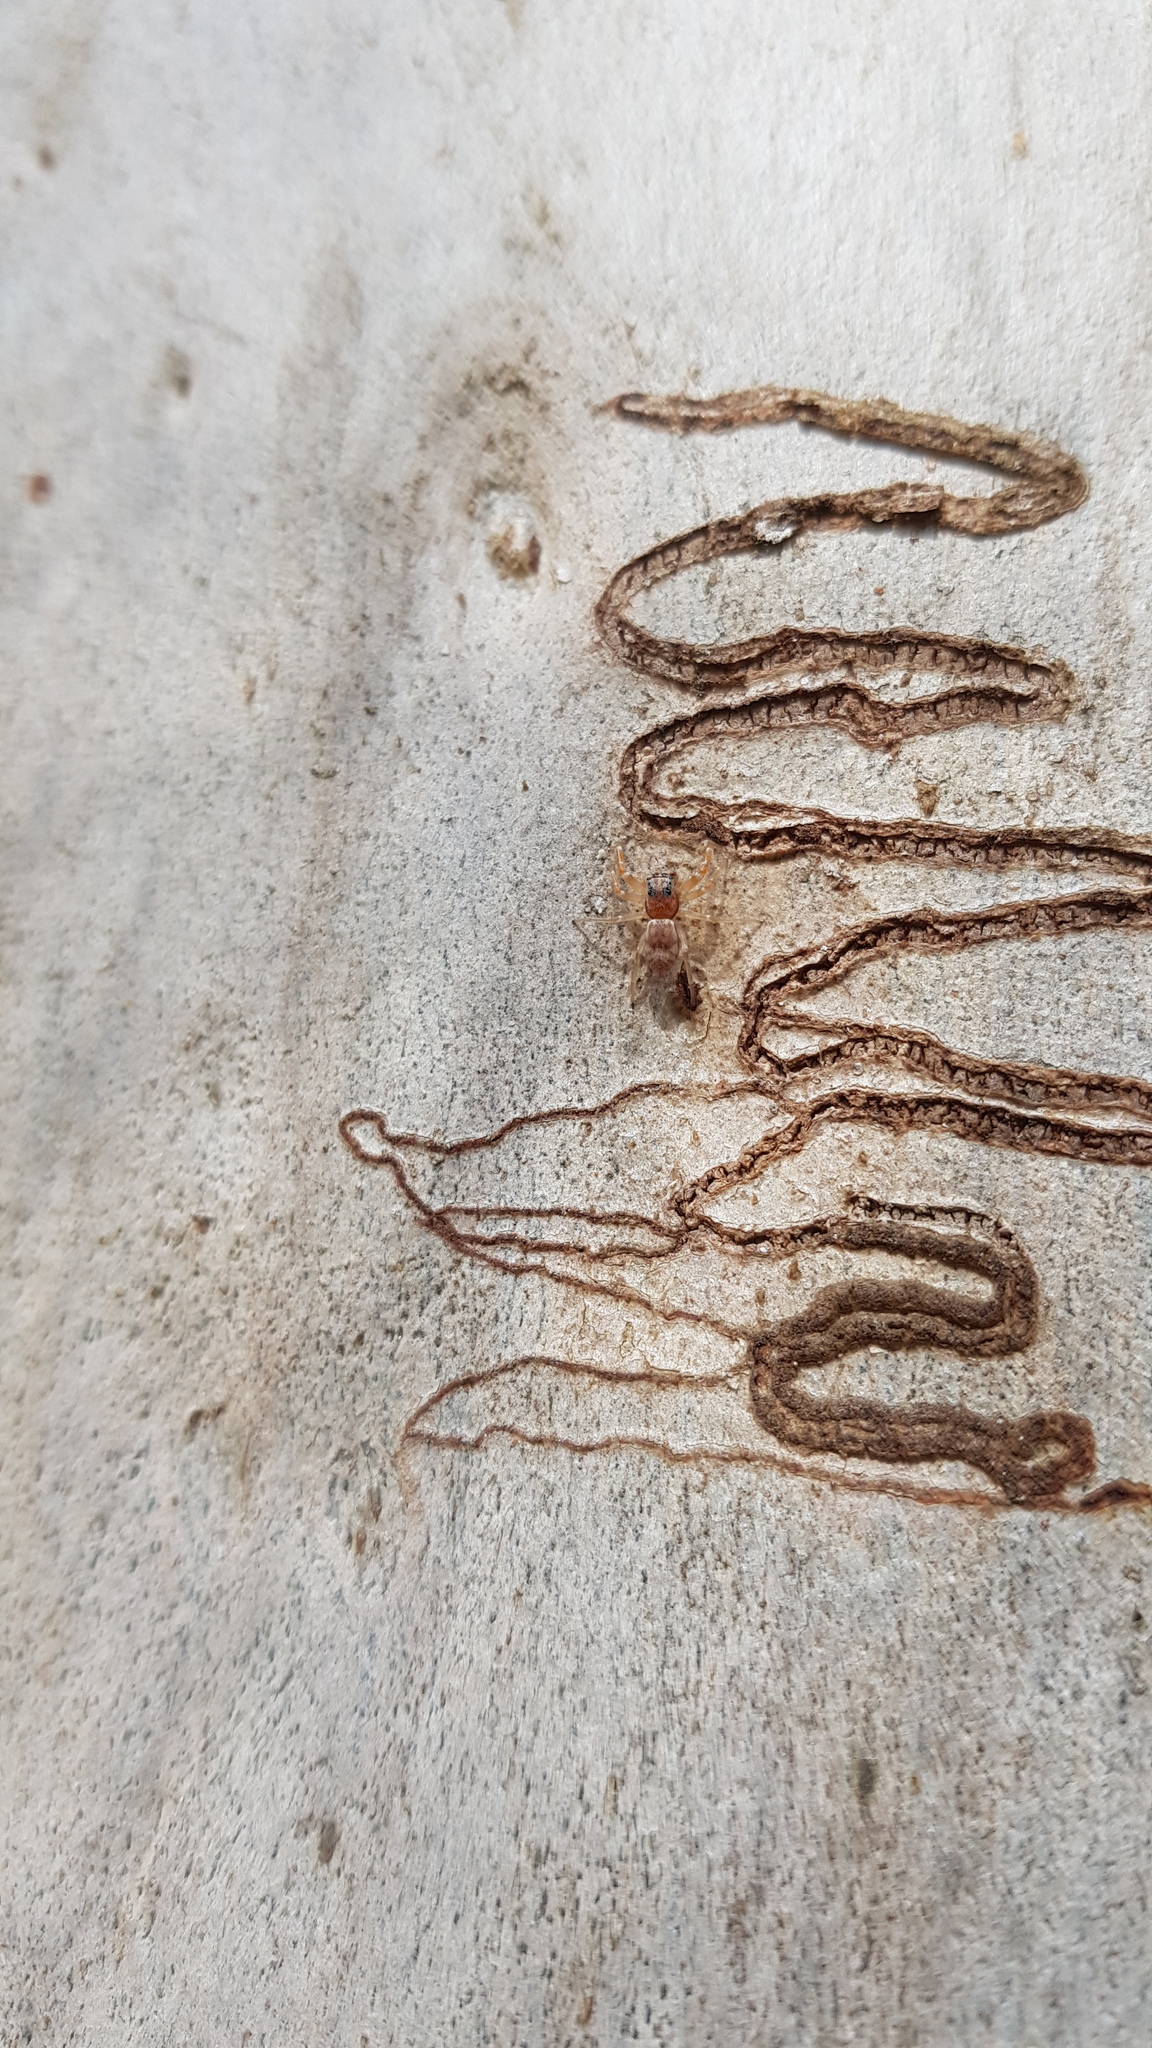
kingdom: Animalia
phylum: Arthropoda
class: Arachnida
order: Araneae
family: Salticidae
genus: Arasia
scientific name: Arasia mollicoma
